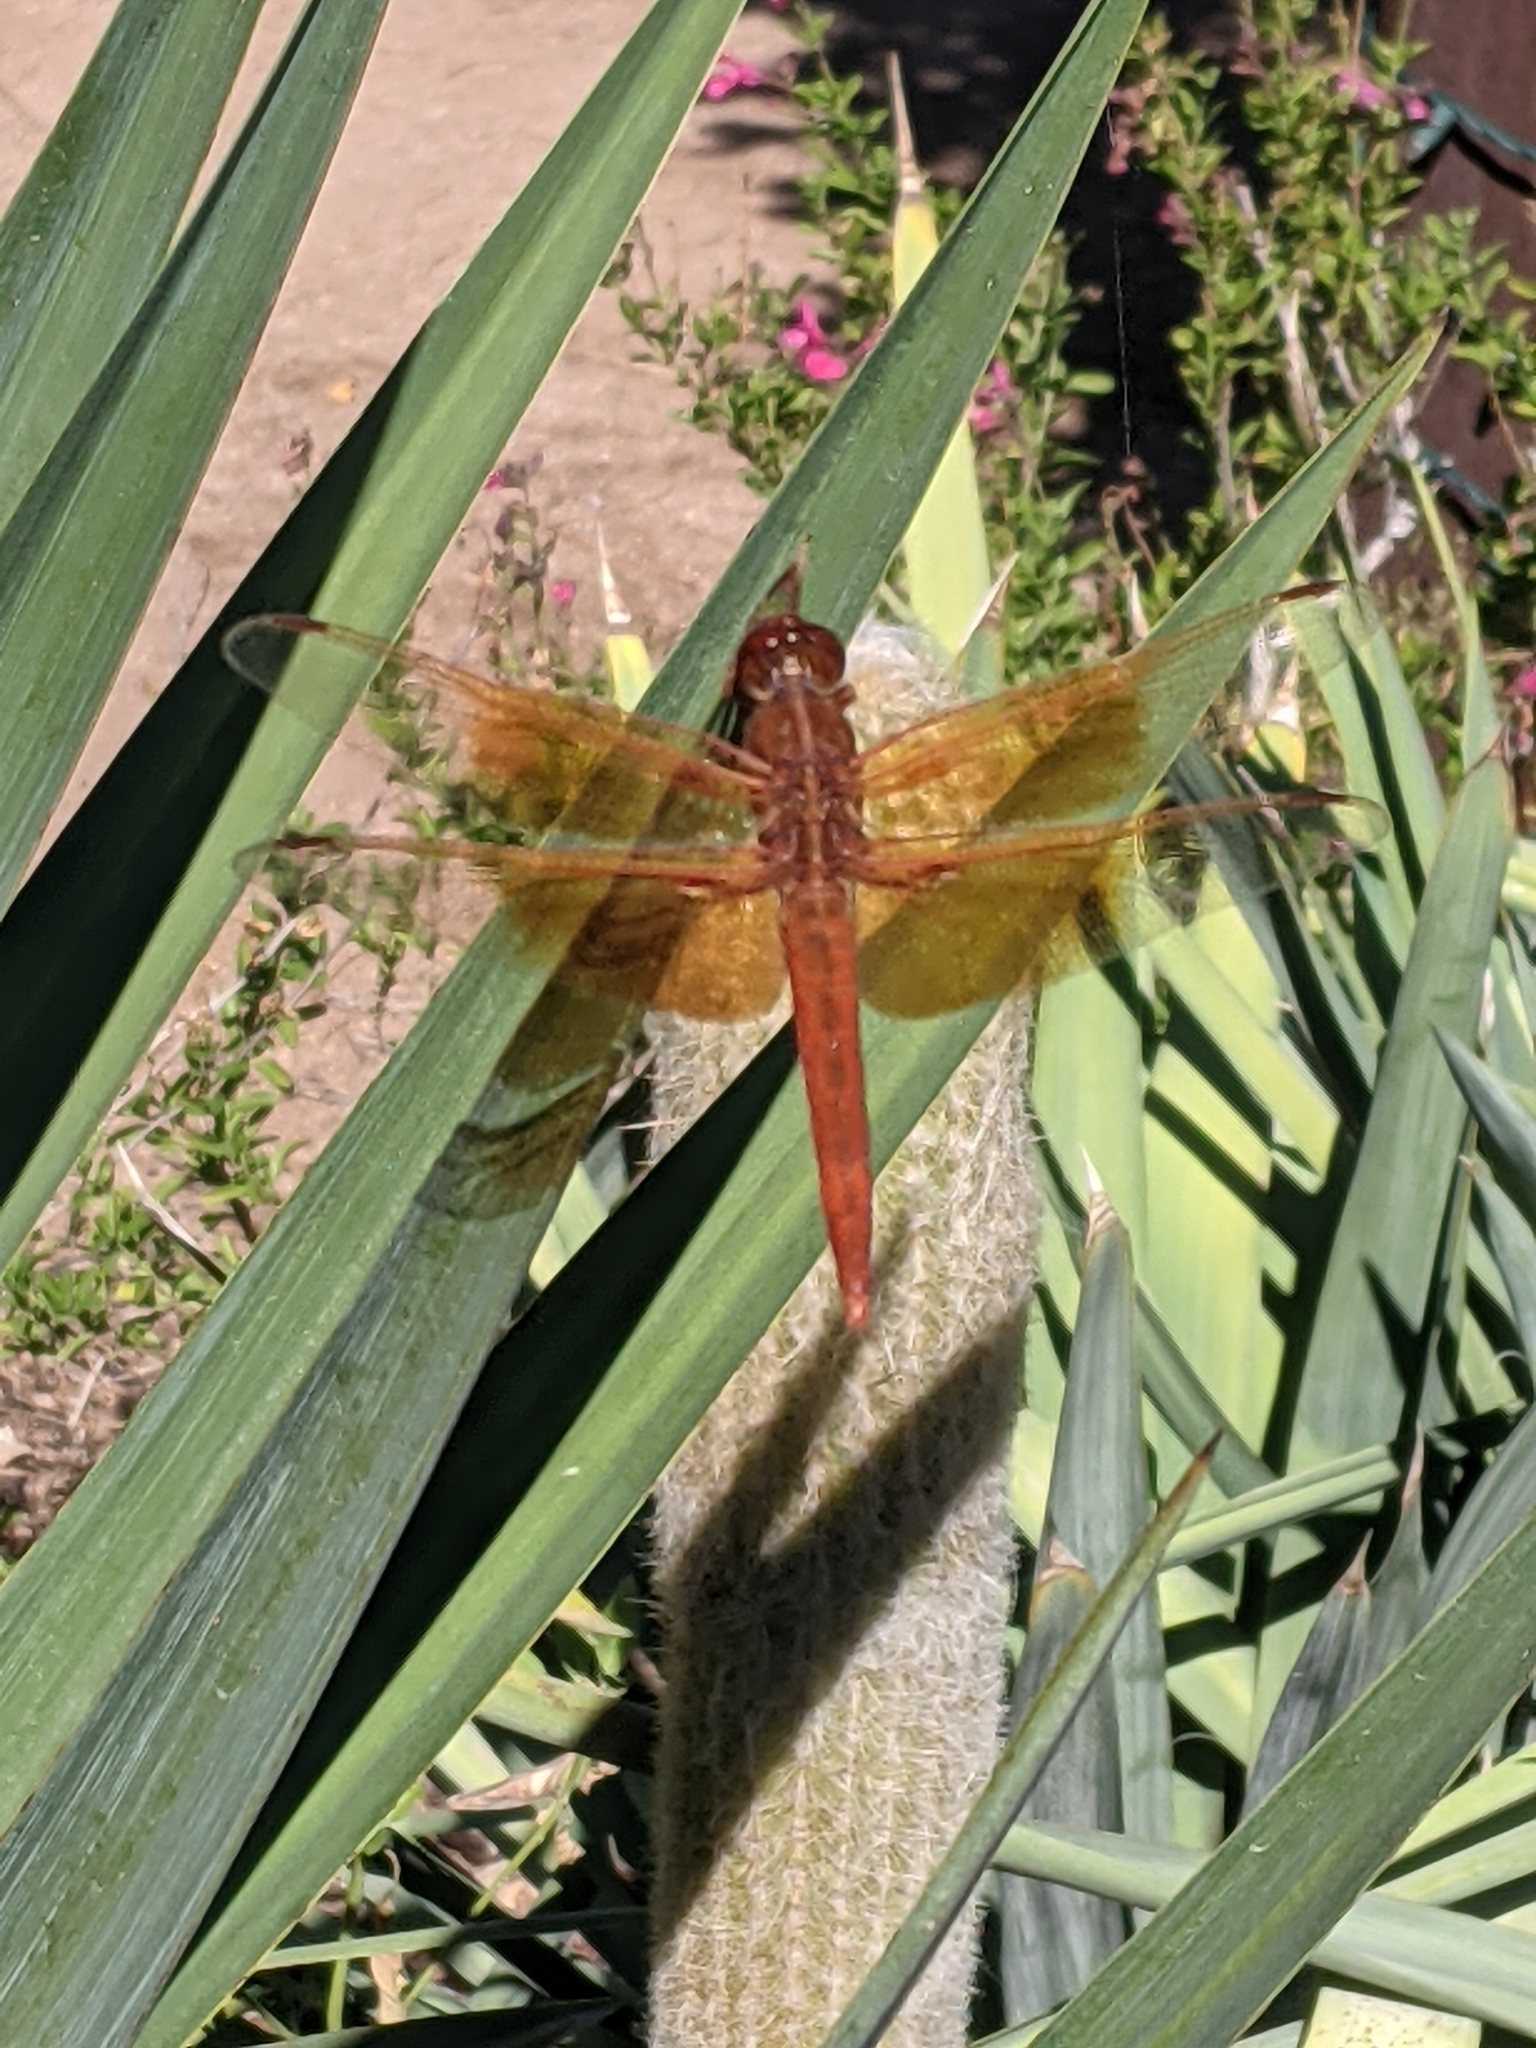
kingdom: Animalia
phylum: Arthropoda
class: Insecta
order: Odonata
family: Libellulidae
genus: Libellula
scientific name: Libellula saturata
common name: Flame skimmer
